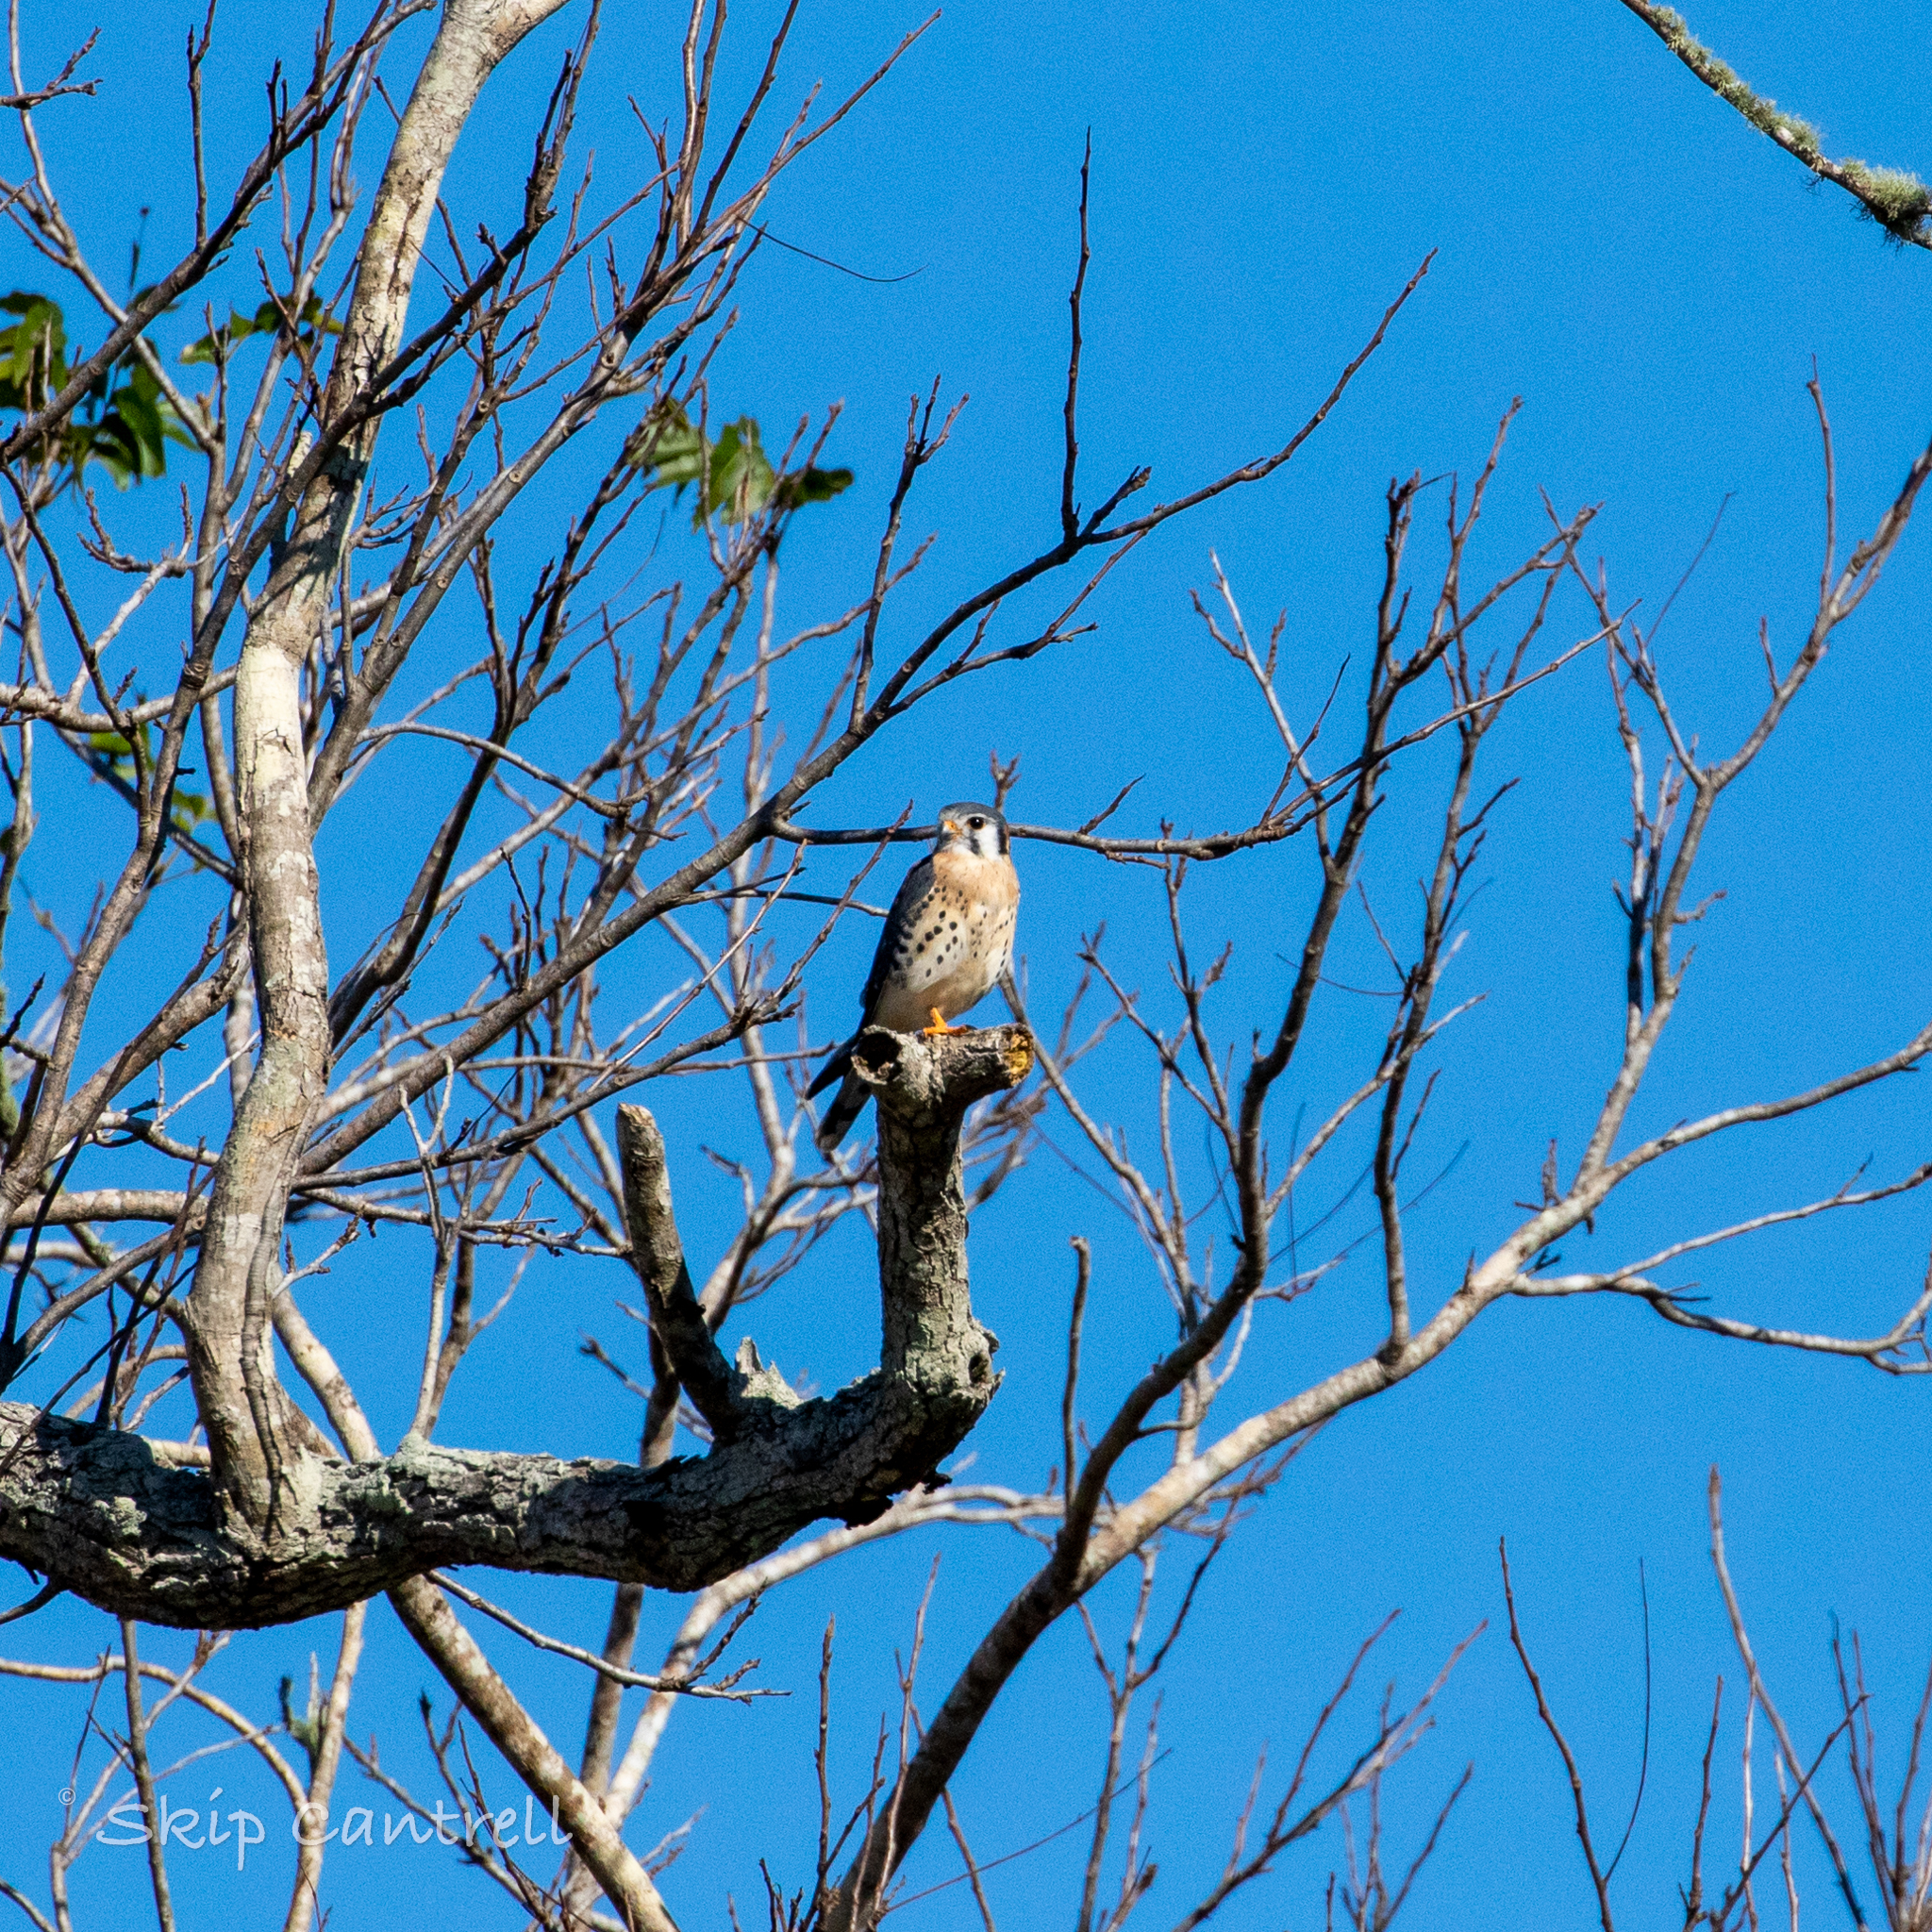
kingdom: Animalia
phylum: Chordata
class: Aves
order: Falconiformes
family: Falconidae
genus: Falco
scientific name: Falco sparverius
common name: American kestrel
